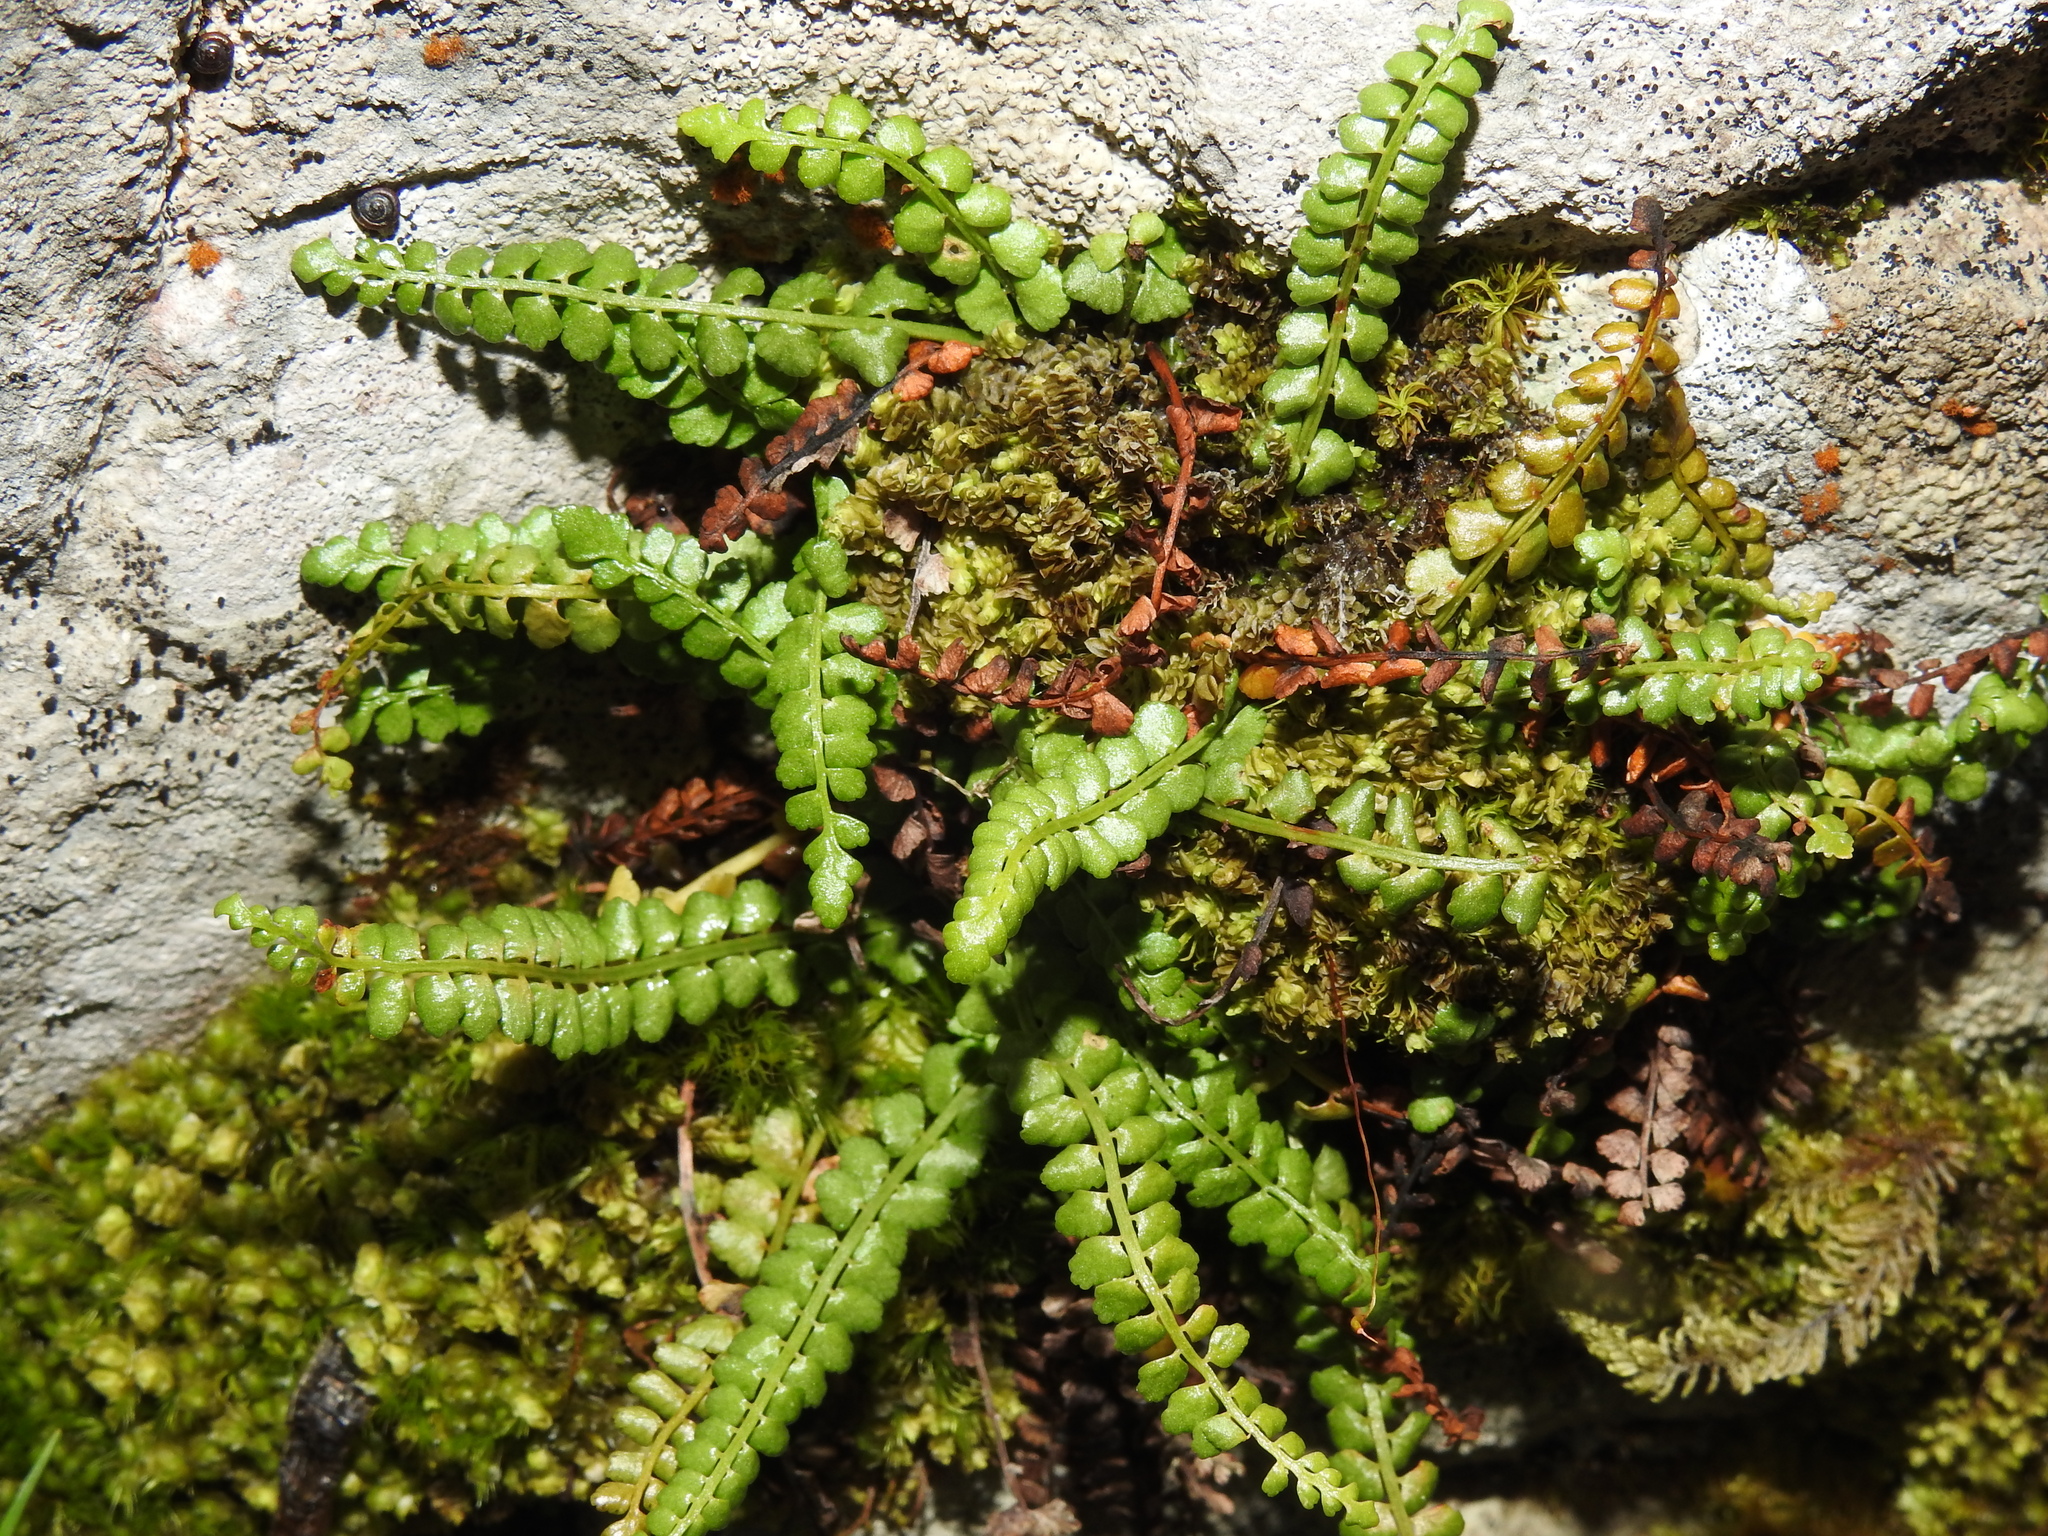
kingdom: Plantae
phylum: Tracheophyta
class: Polypodiopsida
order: Polypodiales
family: Aspleniaceae
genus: Asplenium
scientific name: Asplenium viride
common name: Green spleenwort
